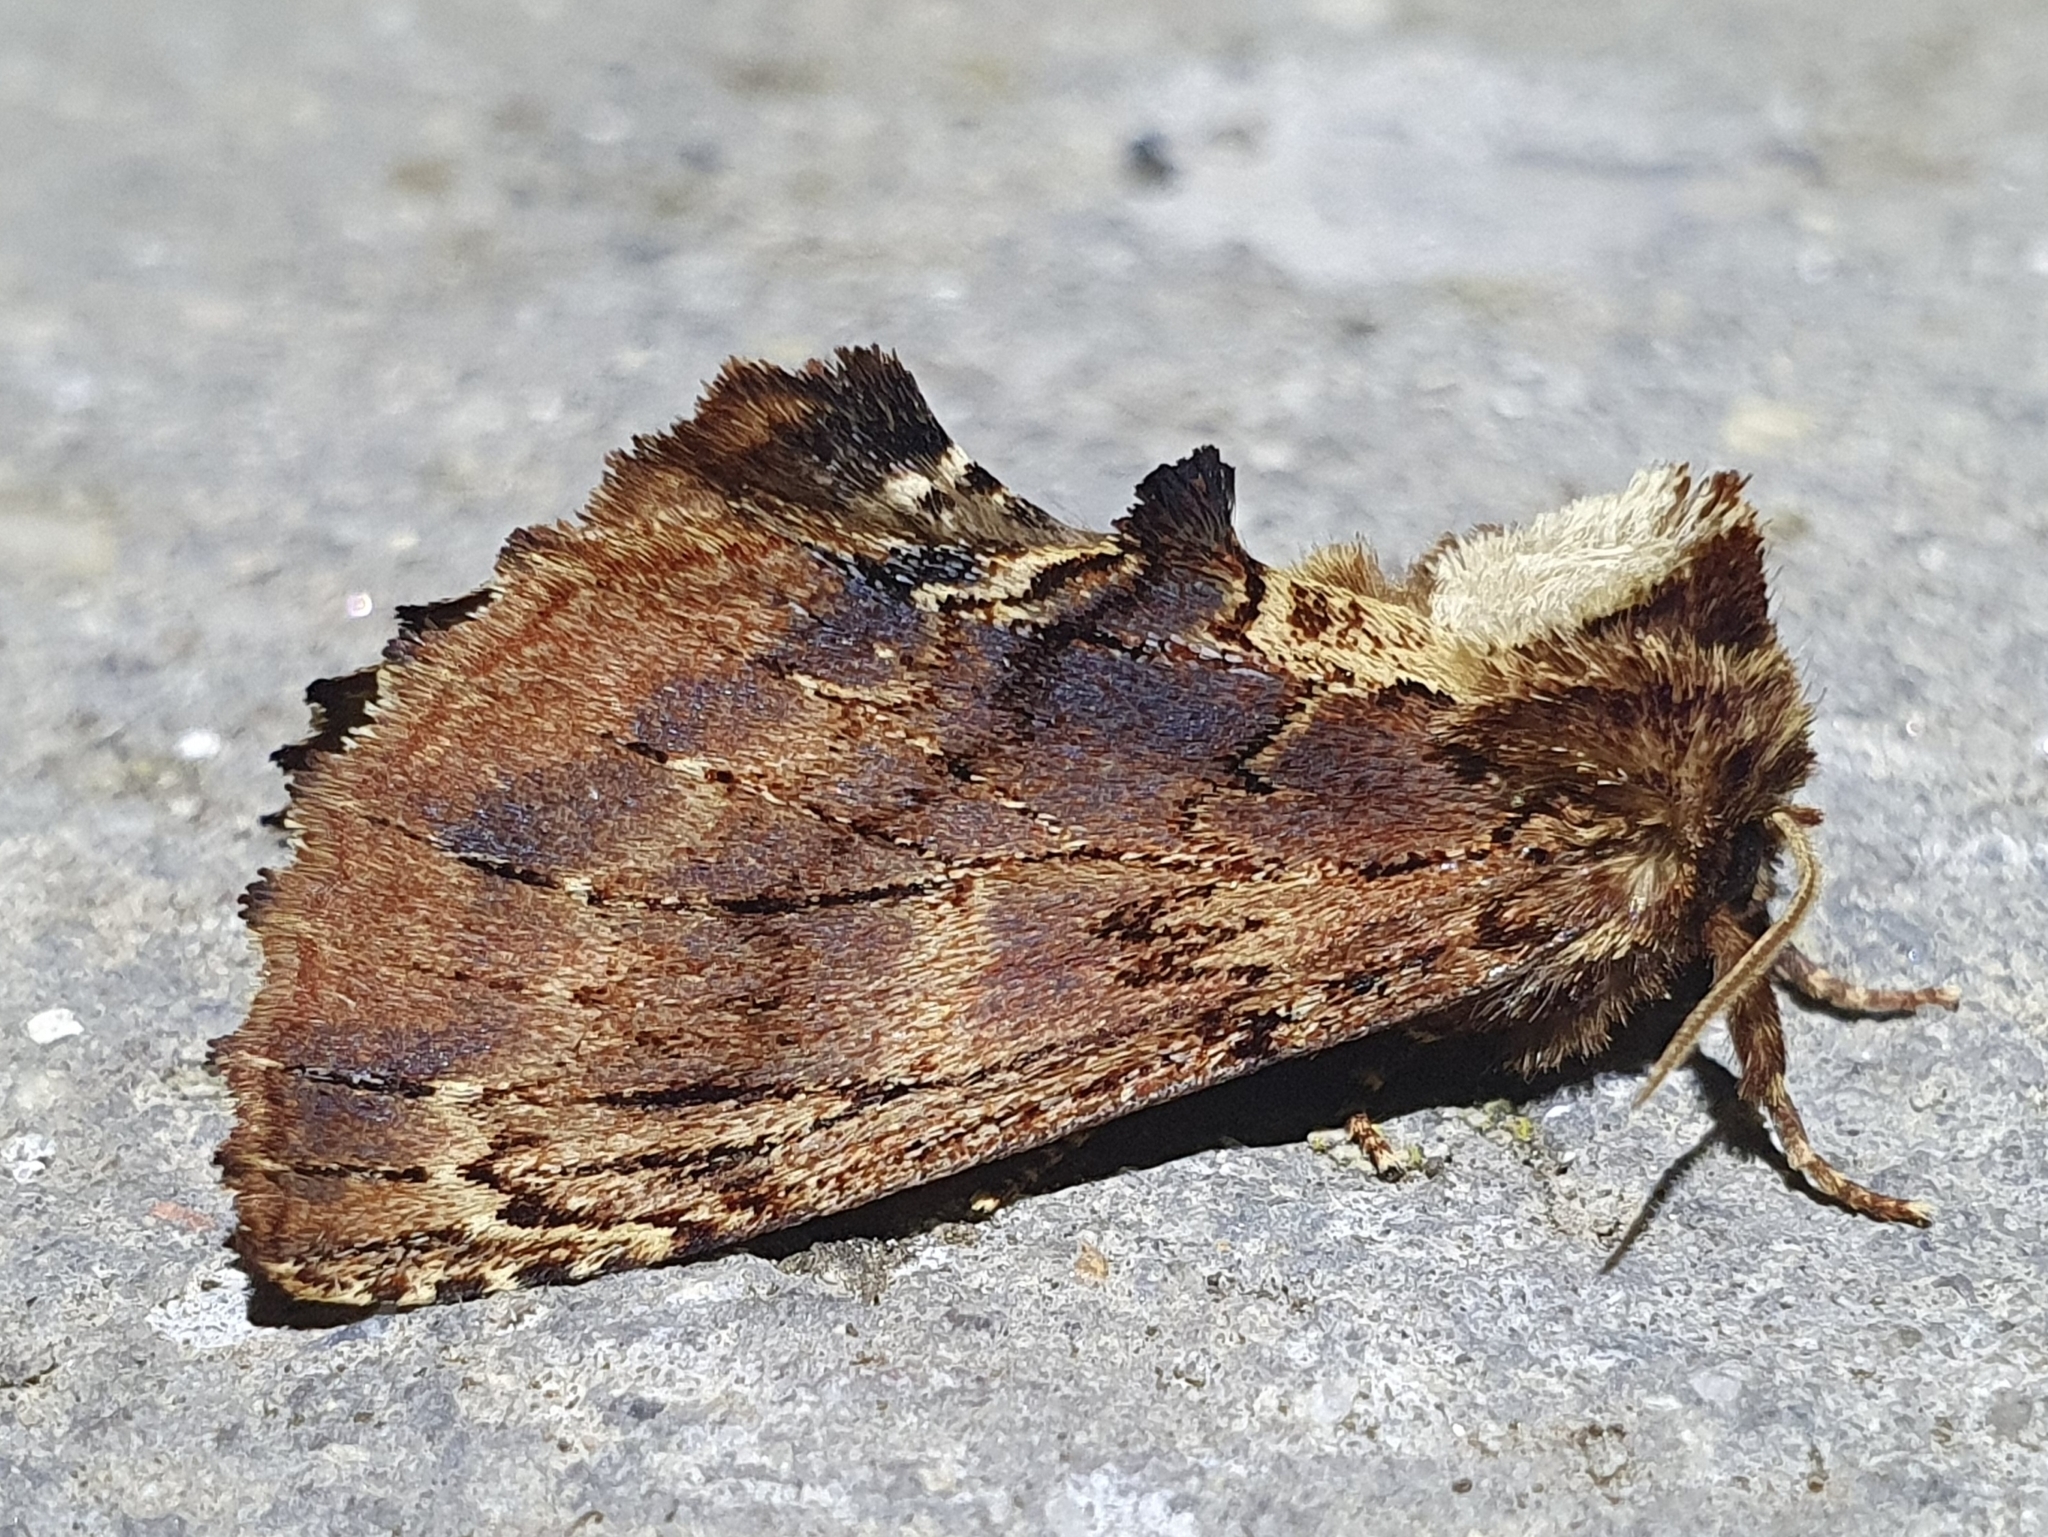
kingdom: Animalia
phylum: Arthropoda
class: Insecta
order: Lepidoptera
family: Notodontidae
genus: Ptilodon
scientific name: Ptilodon capucina
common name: Coxcomb prominent
